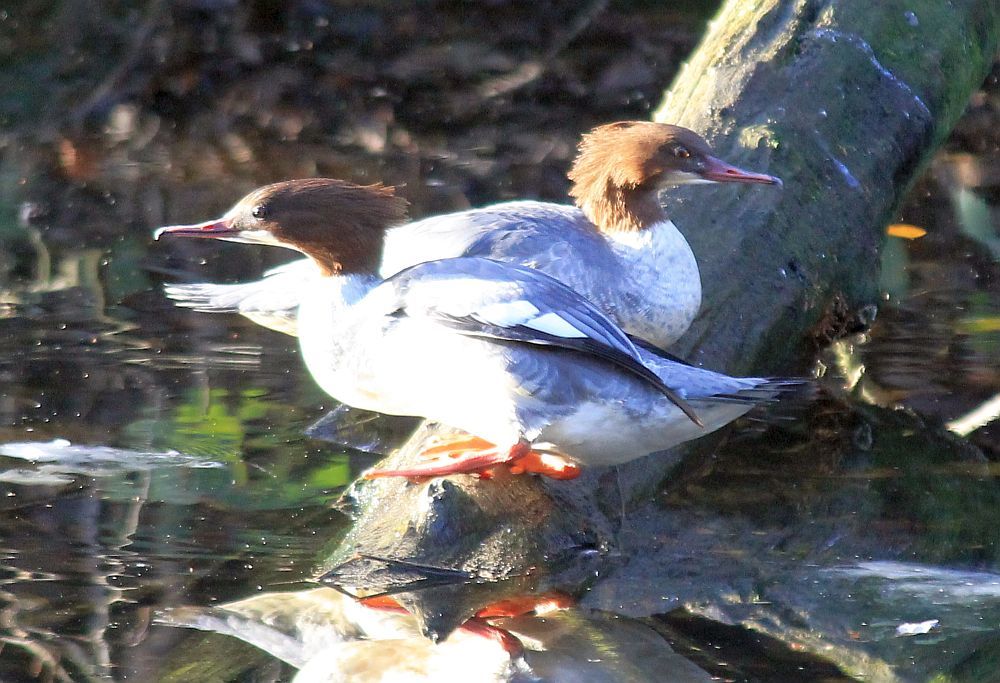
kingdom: Animalia
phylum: Chordata
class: Aves
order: Anseriformes
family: Anatidae
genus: Mergus
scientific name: Mergus merganser
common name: Common merganser
